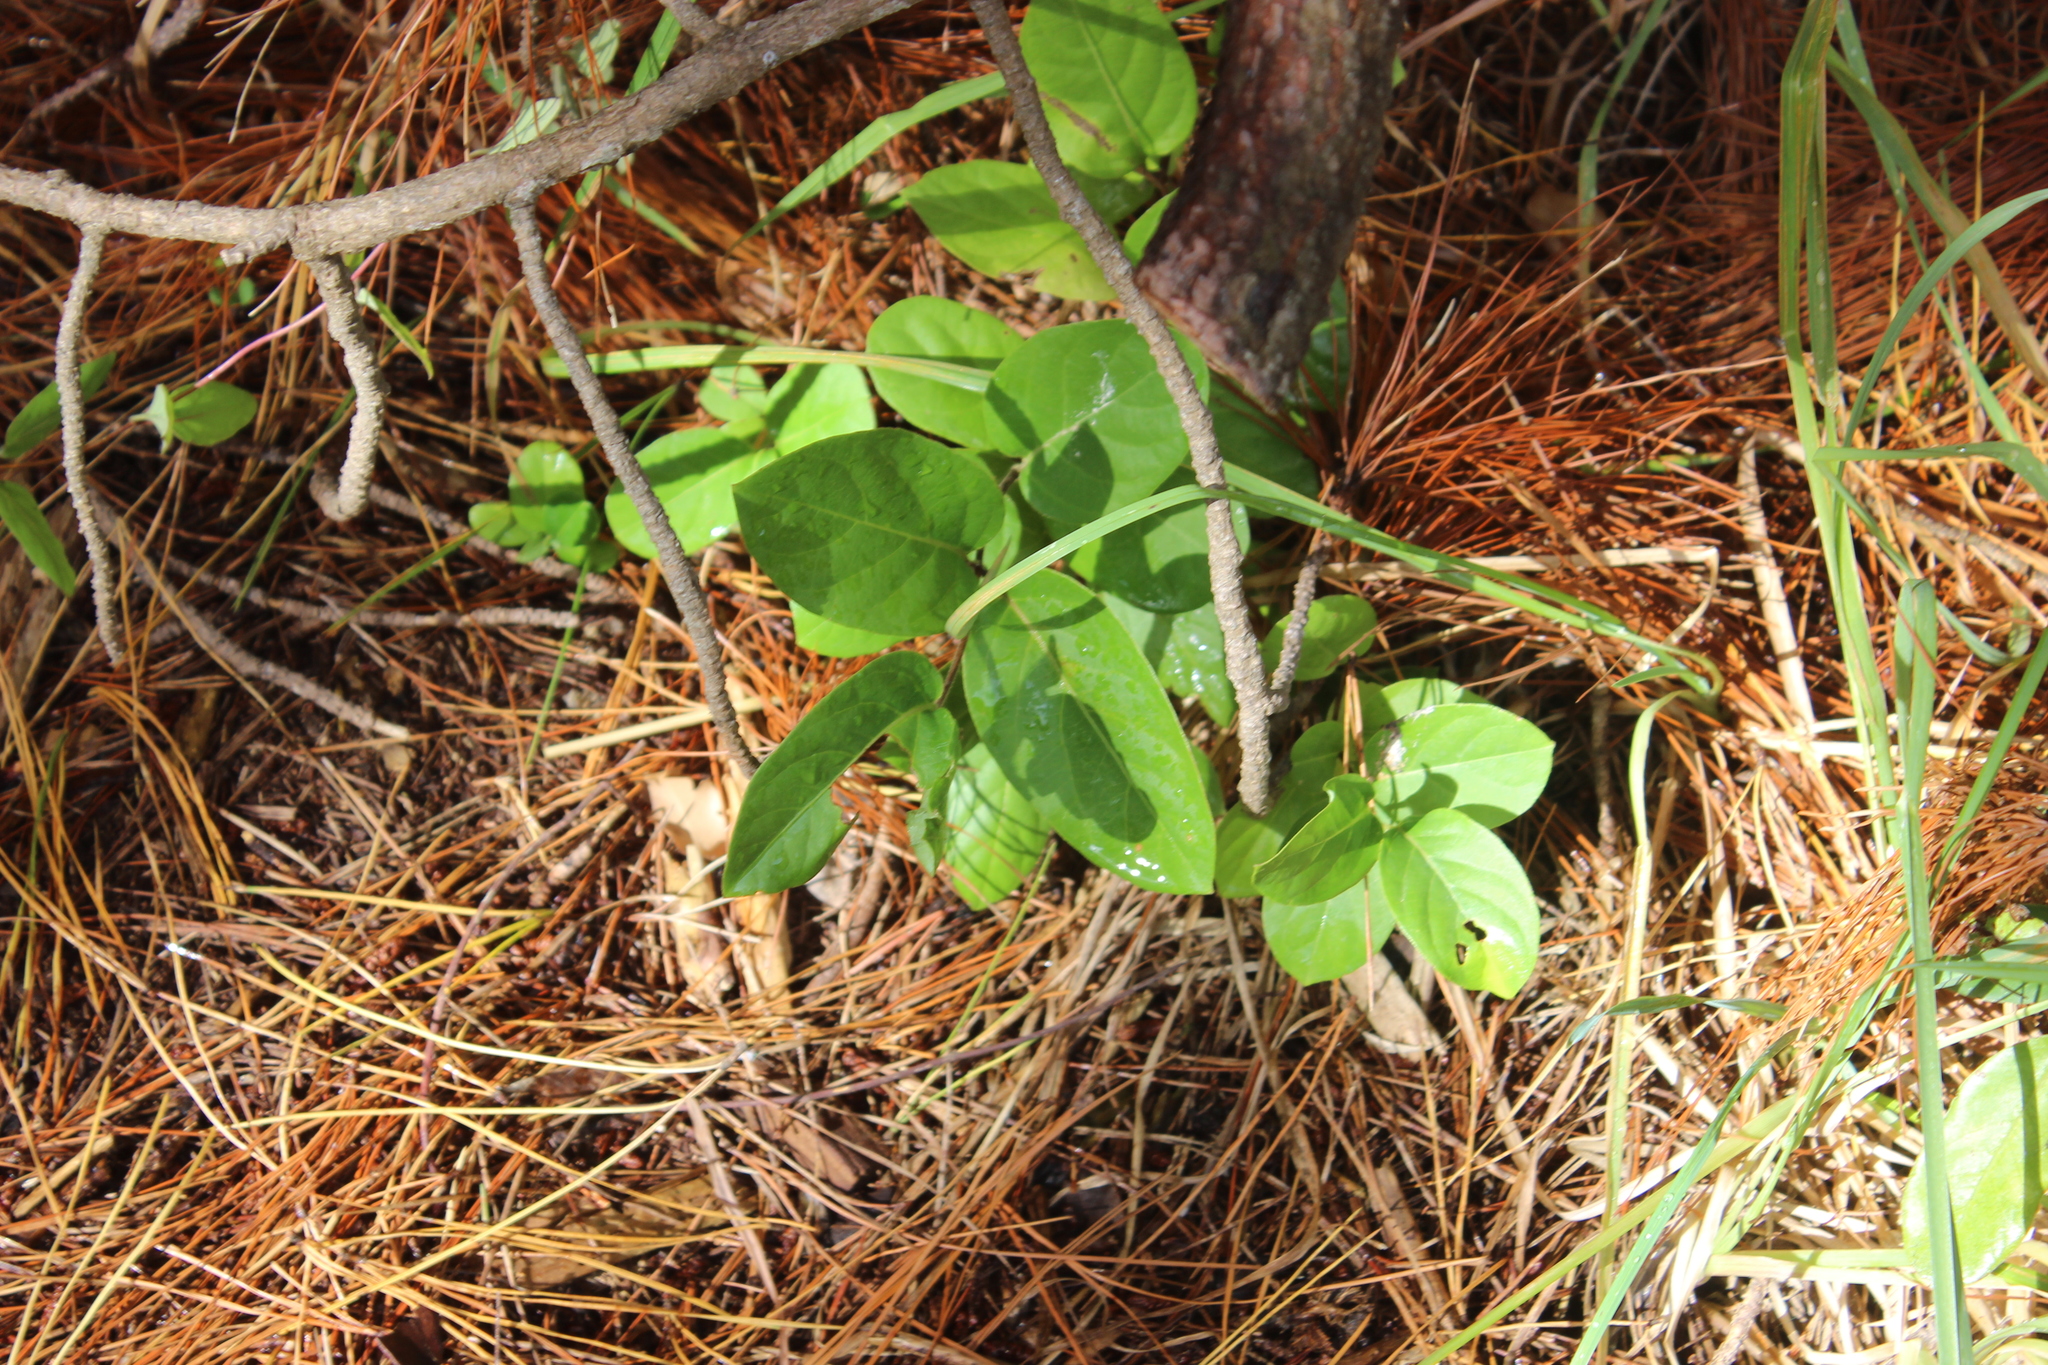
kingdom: Plantae
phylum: Tracheophyta
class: Magnoliopsida
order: Dipsacales
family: Caprifoliaceae
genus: Lonicera
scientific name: Lonicera japonica
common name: Japanese honeysuckle
